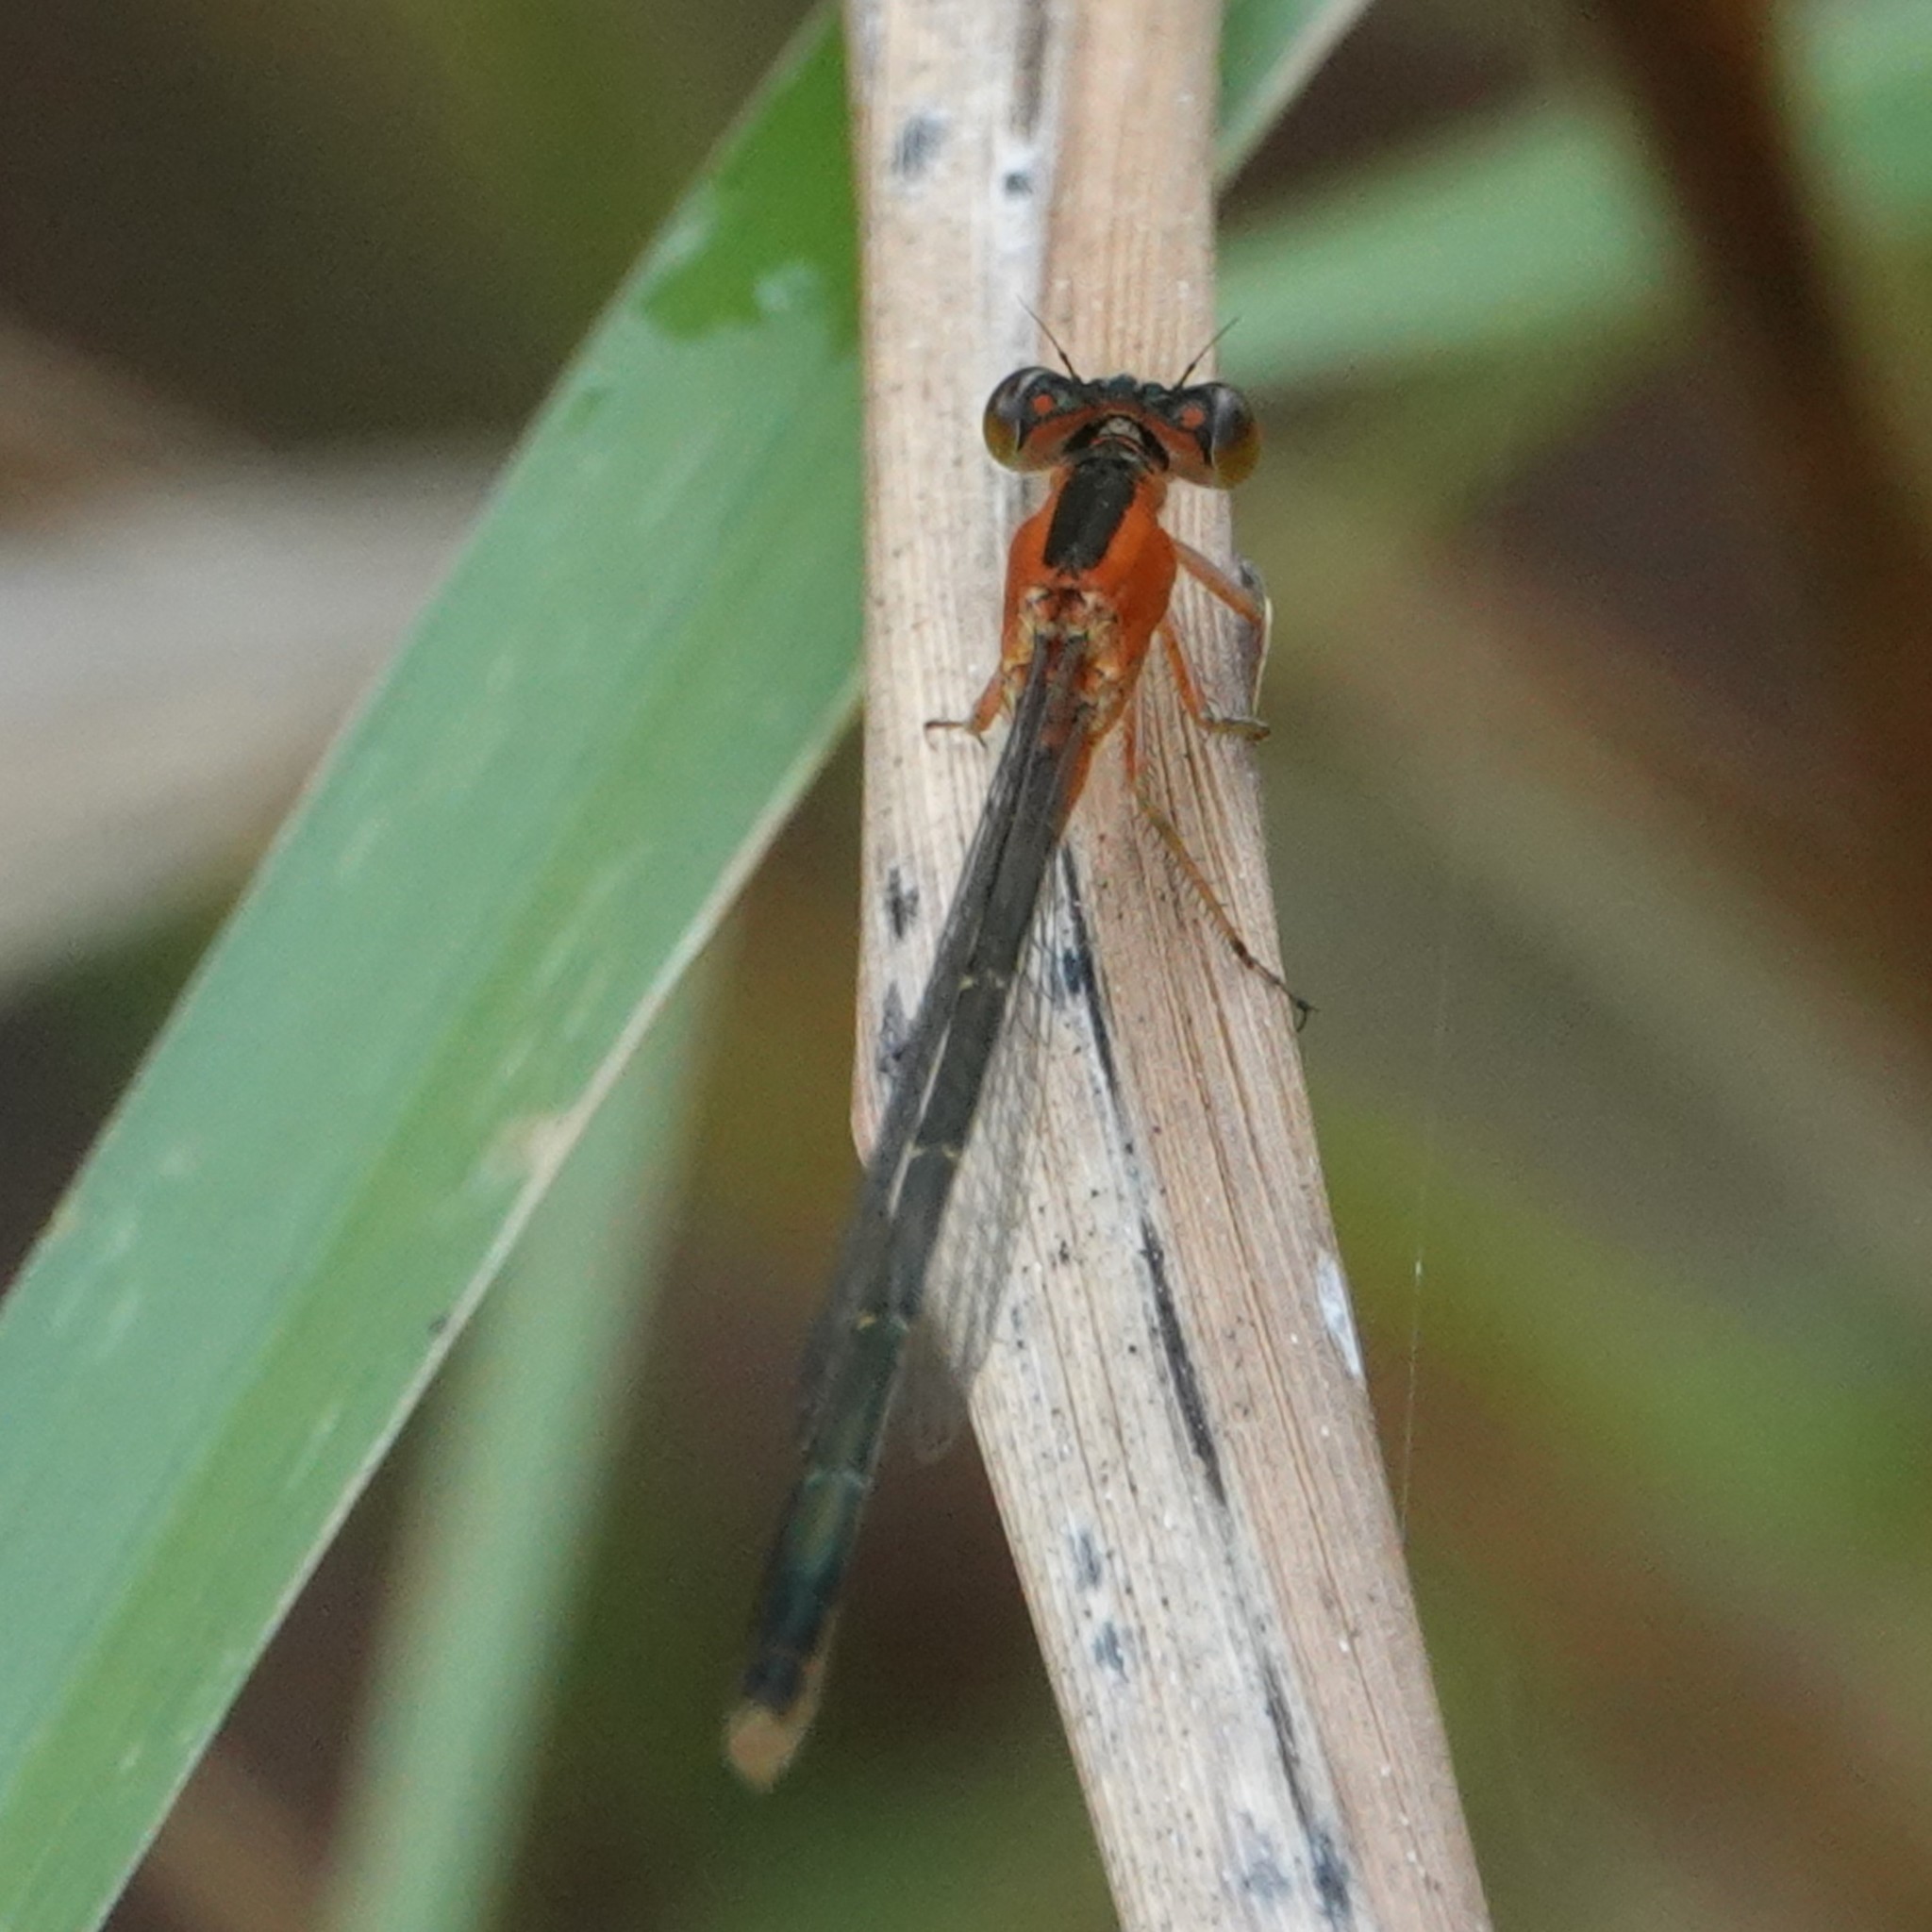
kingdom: Animalia
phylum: Arthropoda
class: Insecta
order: Odonata
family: Coenagrionidae
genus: Ischnura
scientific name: Ischnura ramburii
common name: Rambur's forktail
